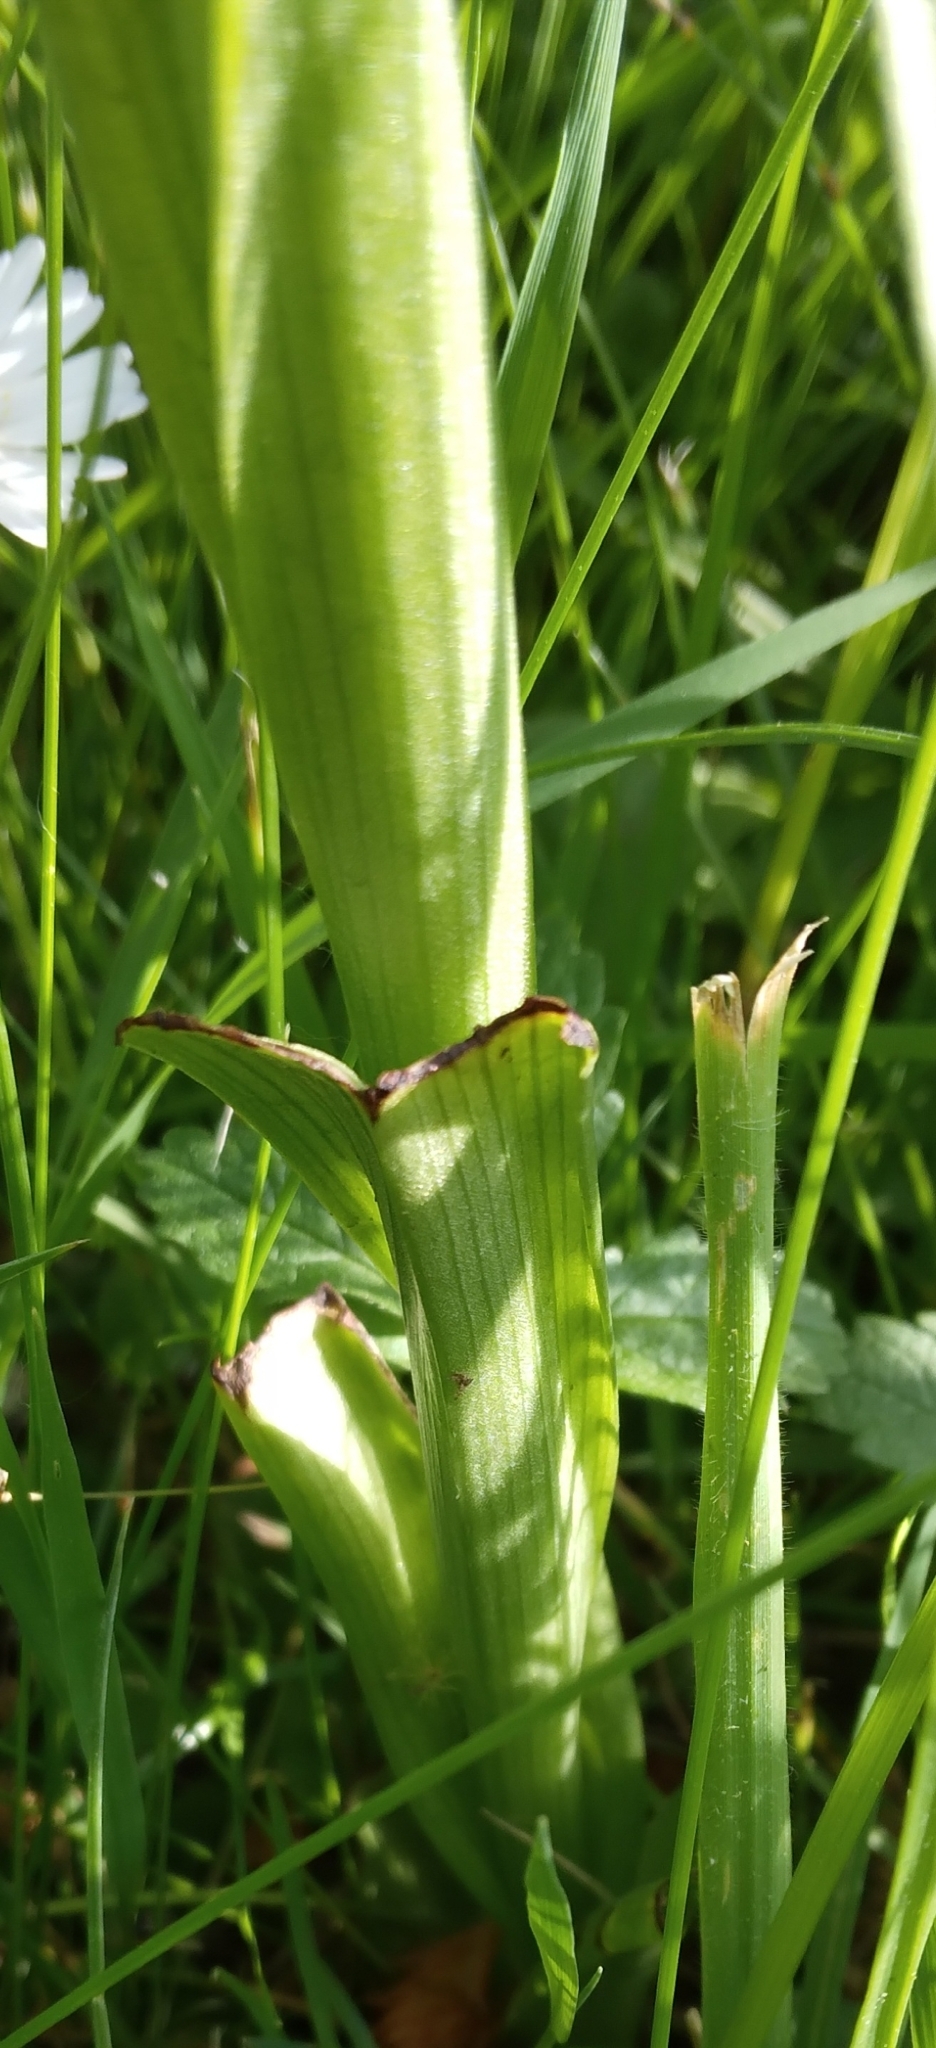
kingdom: Plantae
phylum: Tracheophyta
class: Liliopsida
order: Asparagales
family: Orchidaceae
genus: Anacamptis
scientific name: Anacamptis pyramidalis
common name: Pyramidal orchid
